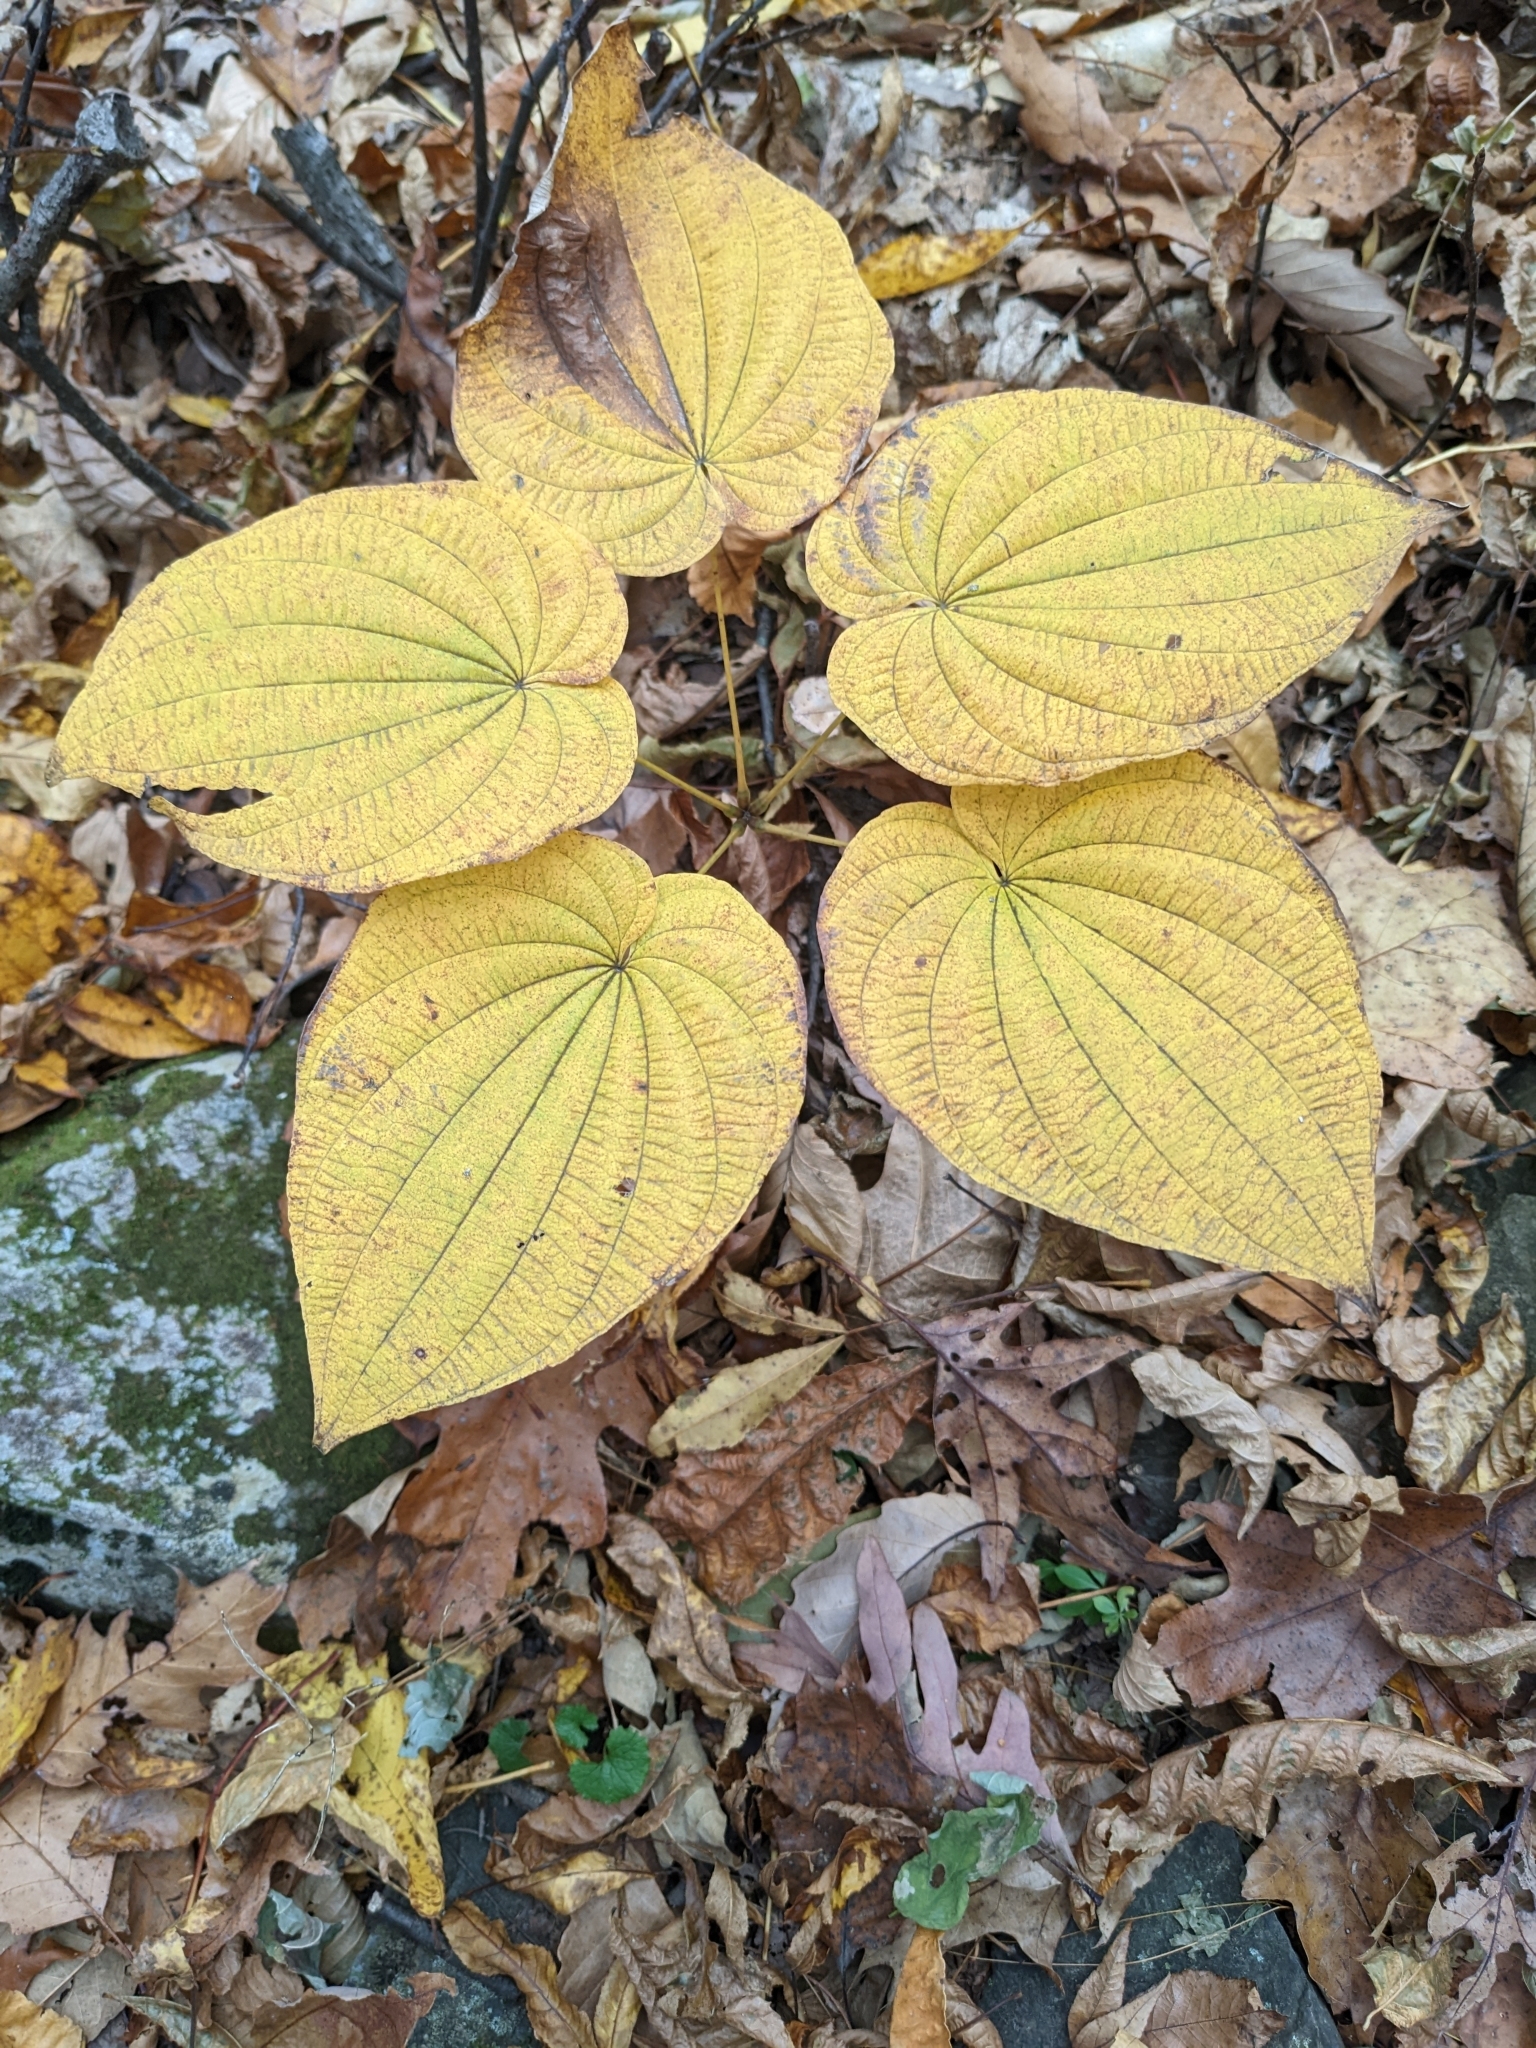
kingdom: Plantae
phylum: Tracheophyta
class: Liliopsida
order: Dioscoreales
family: Dioscoreaceae
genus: Dioscorea
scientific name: Dioscorea villosa
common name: Wild yam
